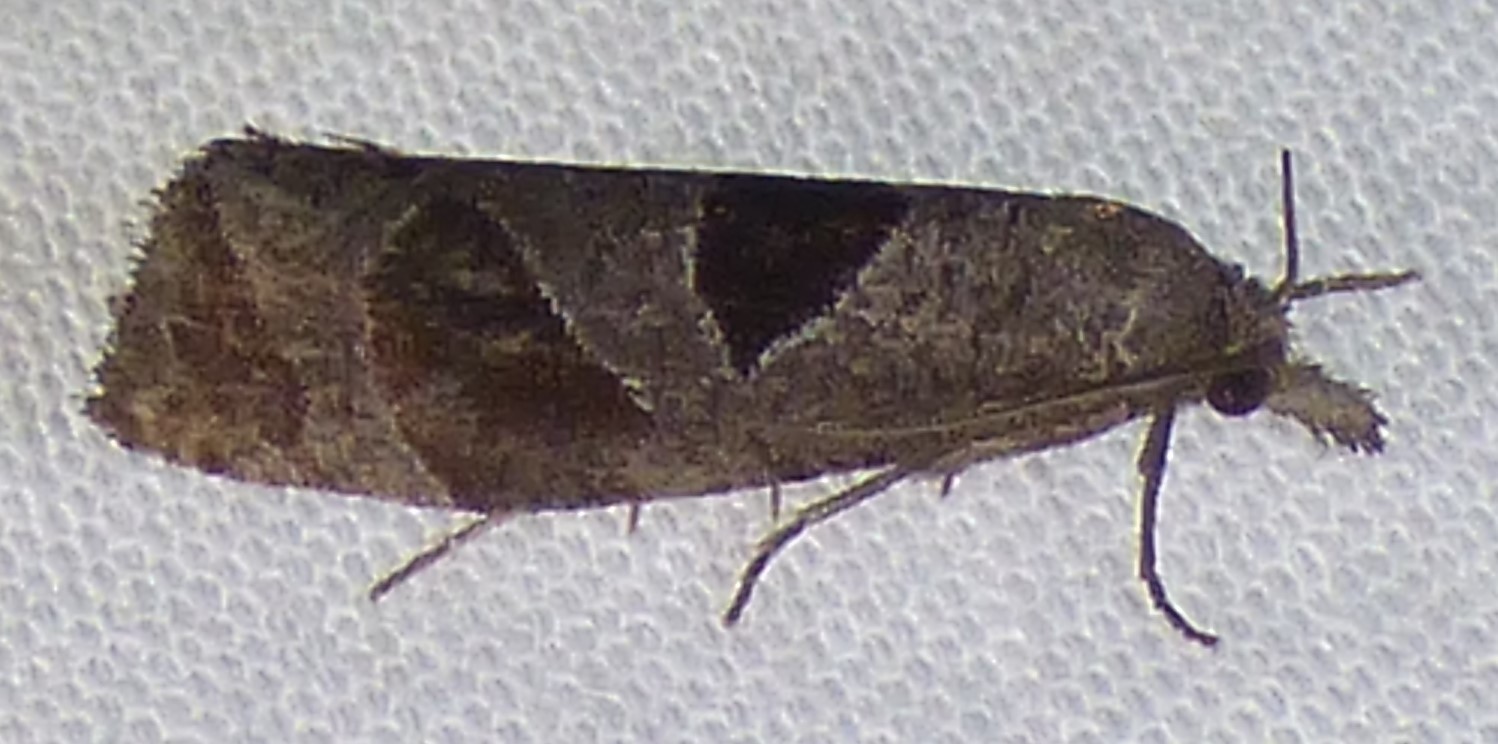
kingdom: Animalia
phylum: Arthropoda
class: Insecta
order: Lepidoptera
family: Tortricidae
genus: Pelochrista
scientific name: Pelochrista dorsisignatana
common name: Triangle-backed pelochrista moth
